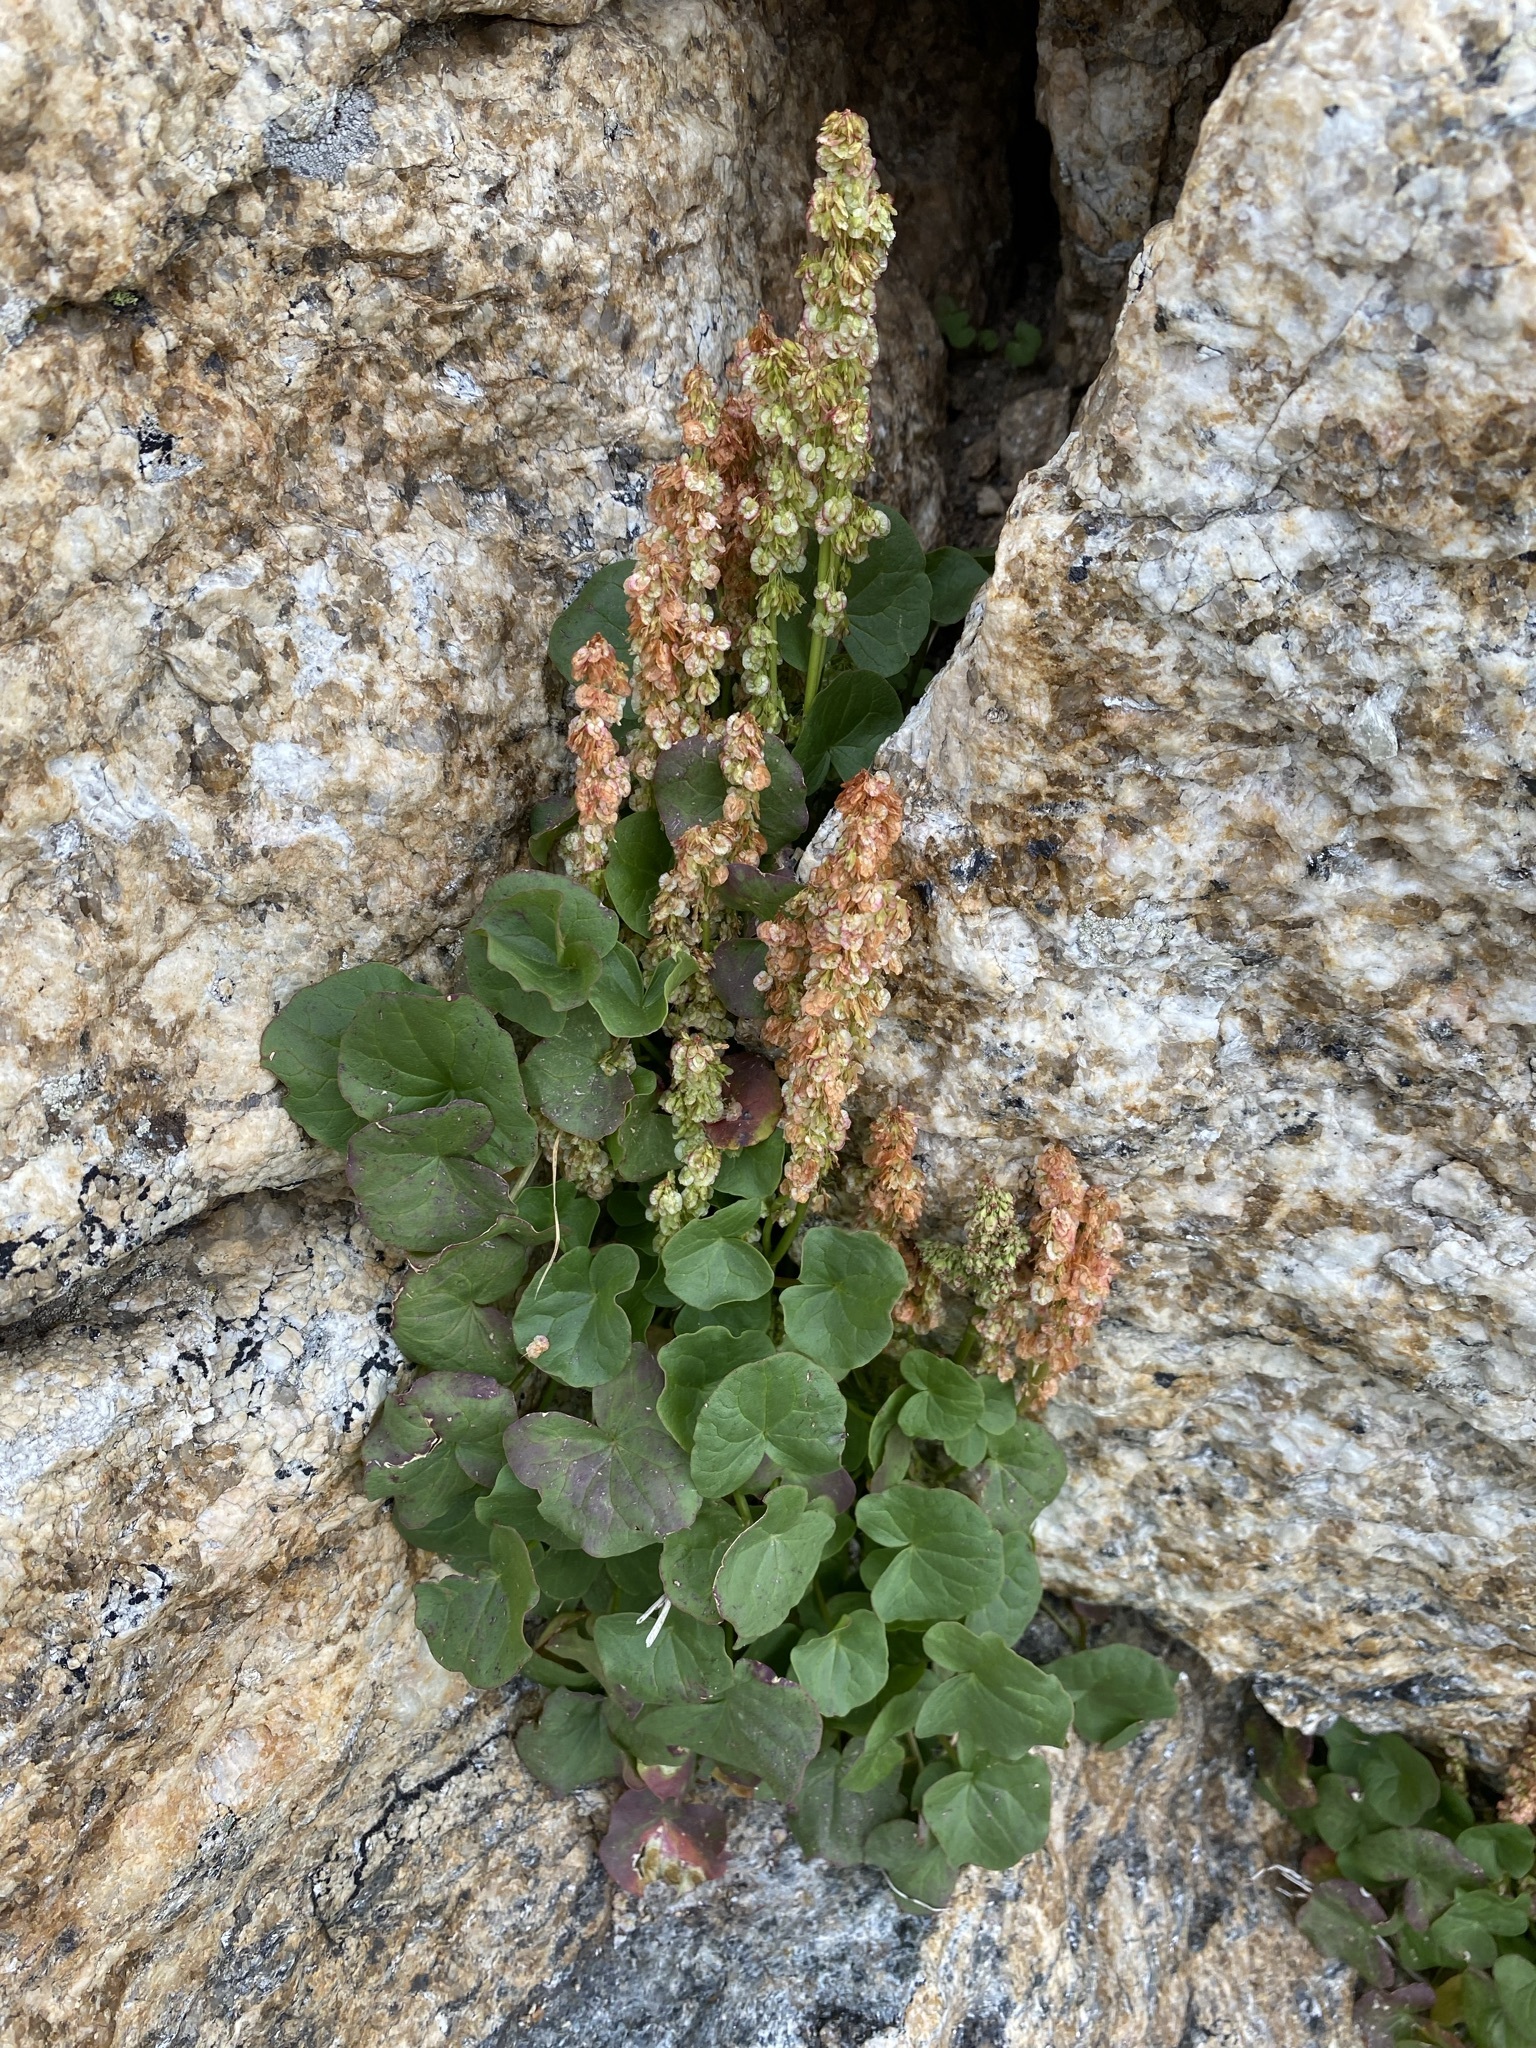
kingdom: Plantae
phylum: Tracheophyta
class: Magnoliopsida
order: Caryophyllales
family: Polygonaceae
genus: Oxyria
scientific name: Oxyria digyna
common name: Alpine mountain-sorrel
